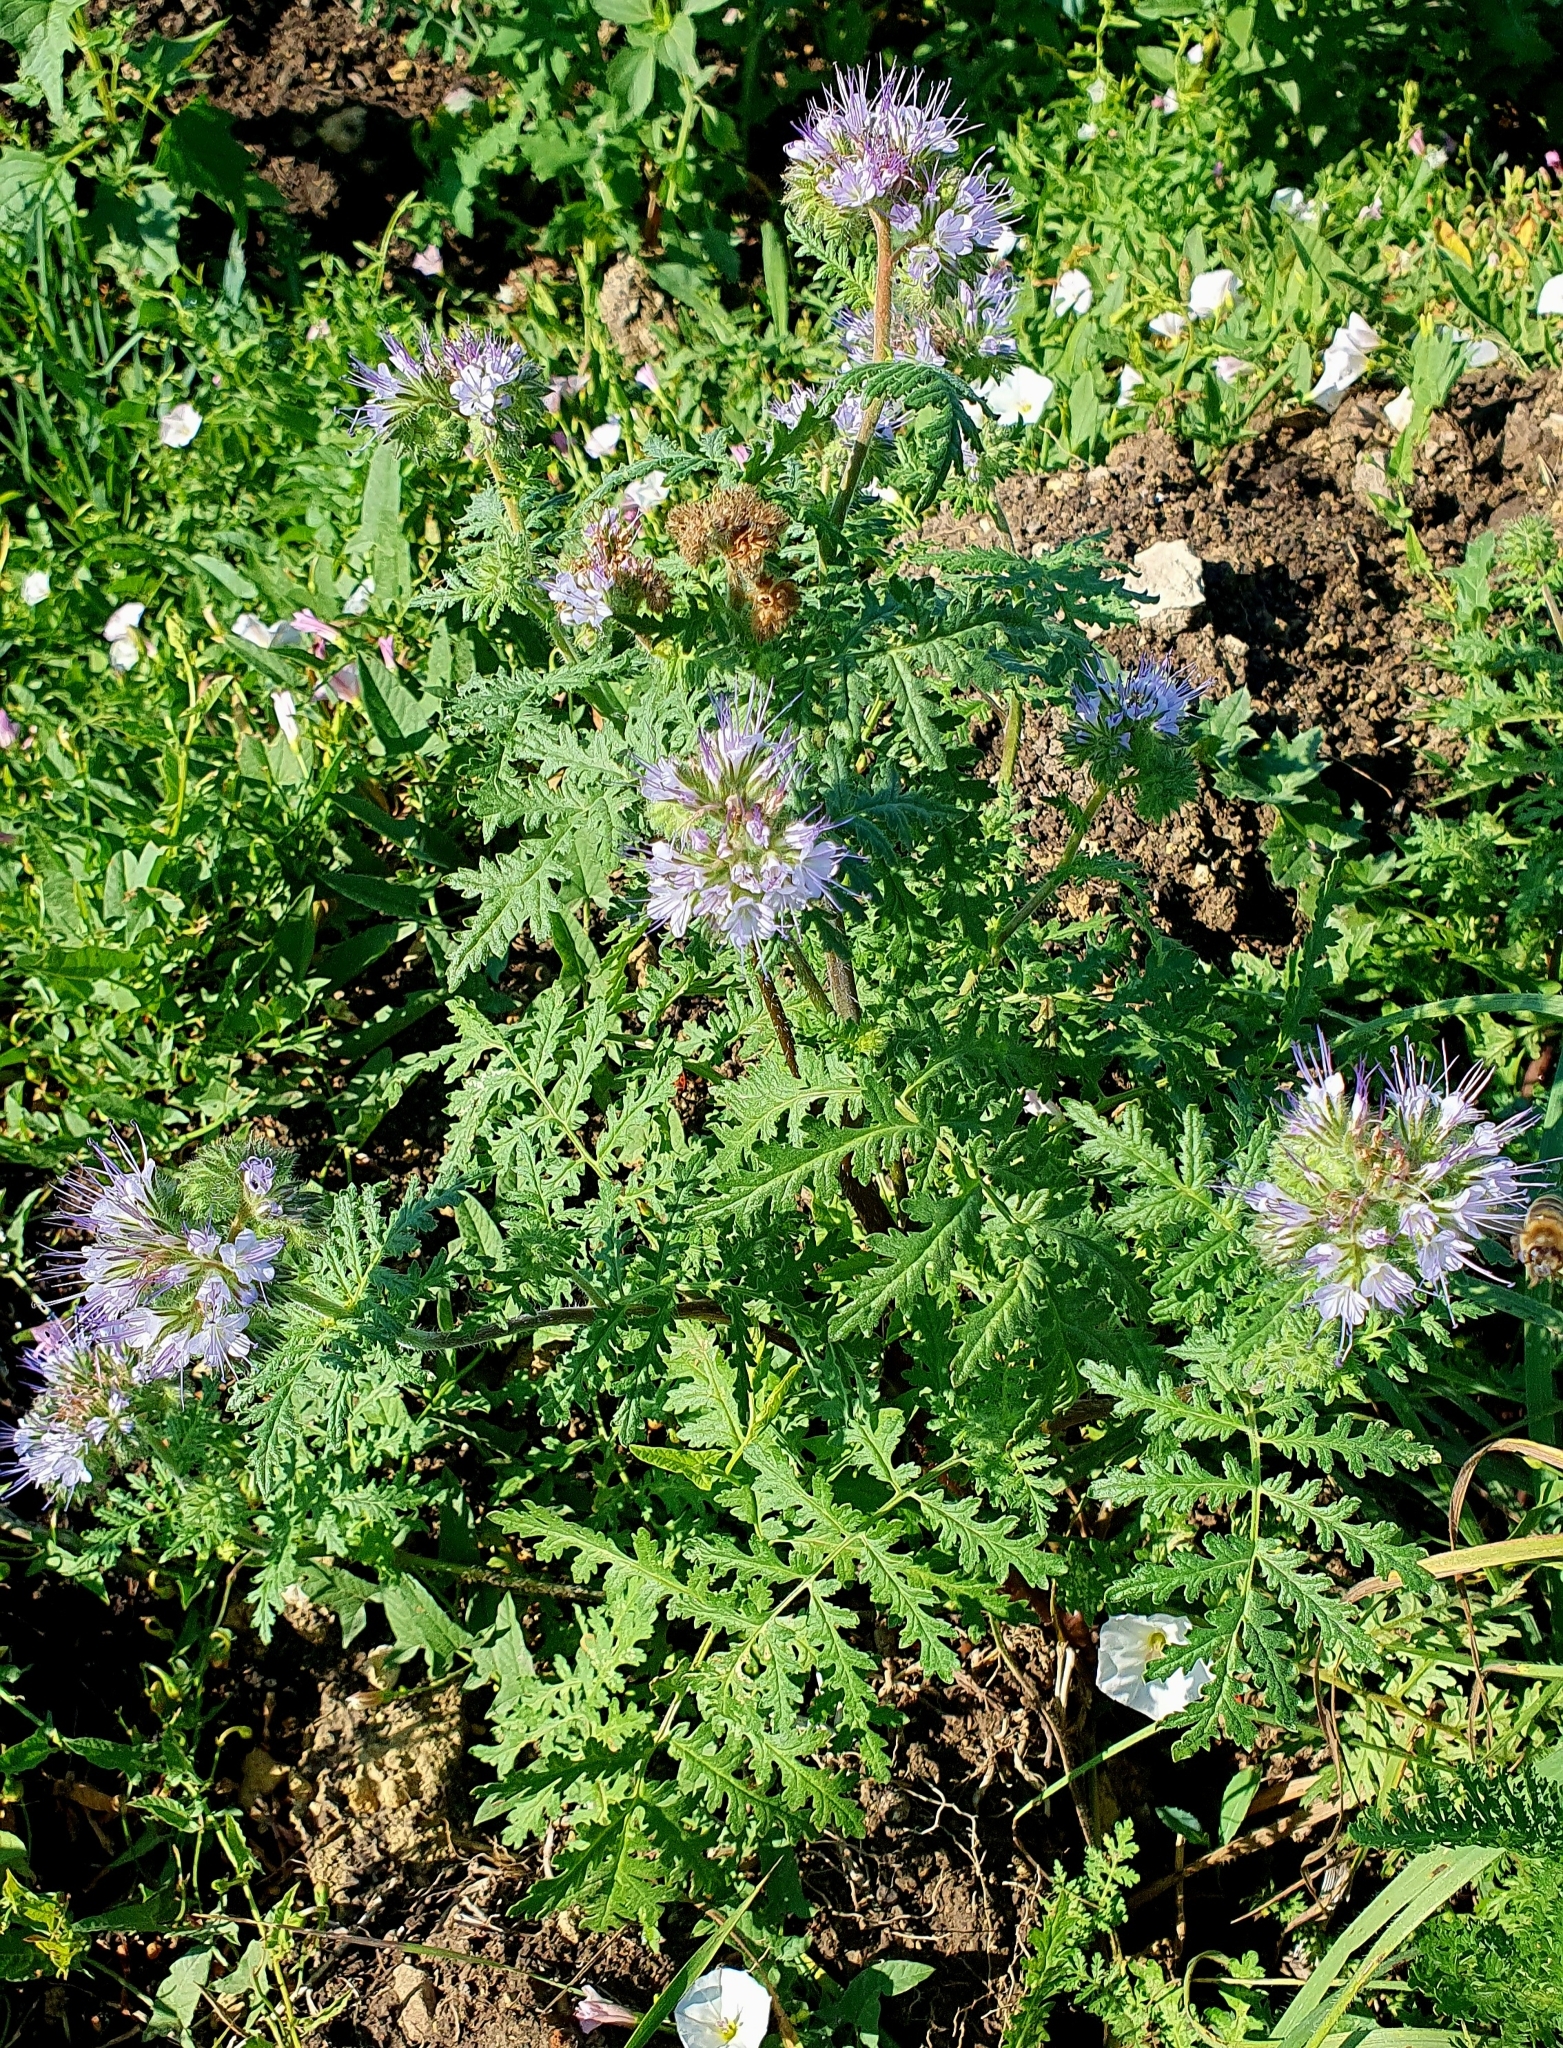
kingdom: Plantae
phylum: Tracheophyta
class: Magnoliopsida
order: Boraginales
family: Hydrophyllaceae
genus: Phacelia
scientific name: Phacelia tanacetifolia
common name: Phacelia
